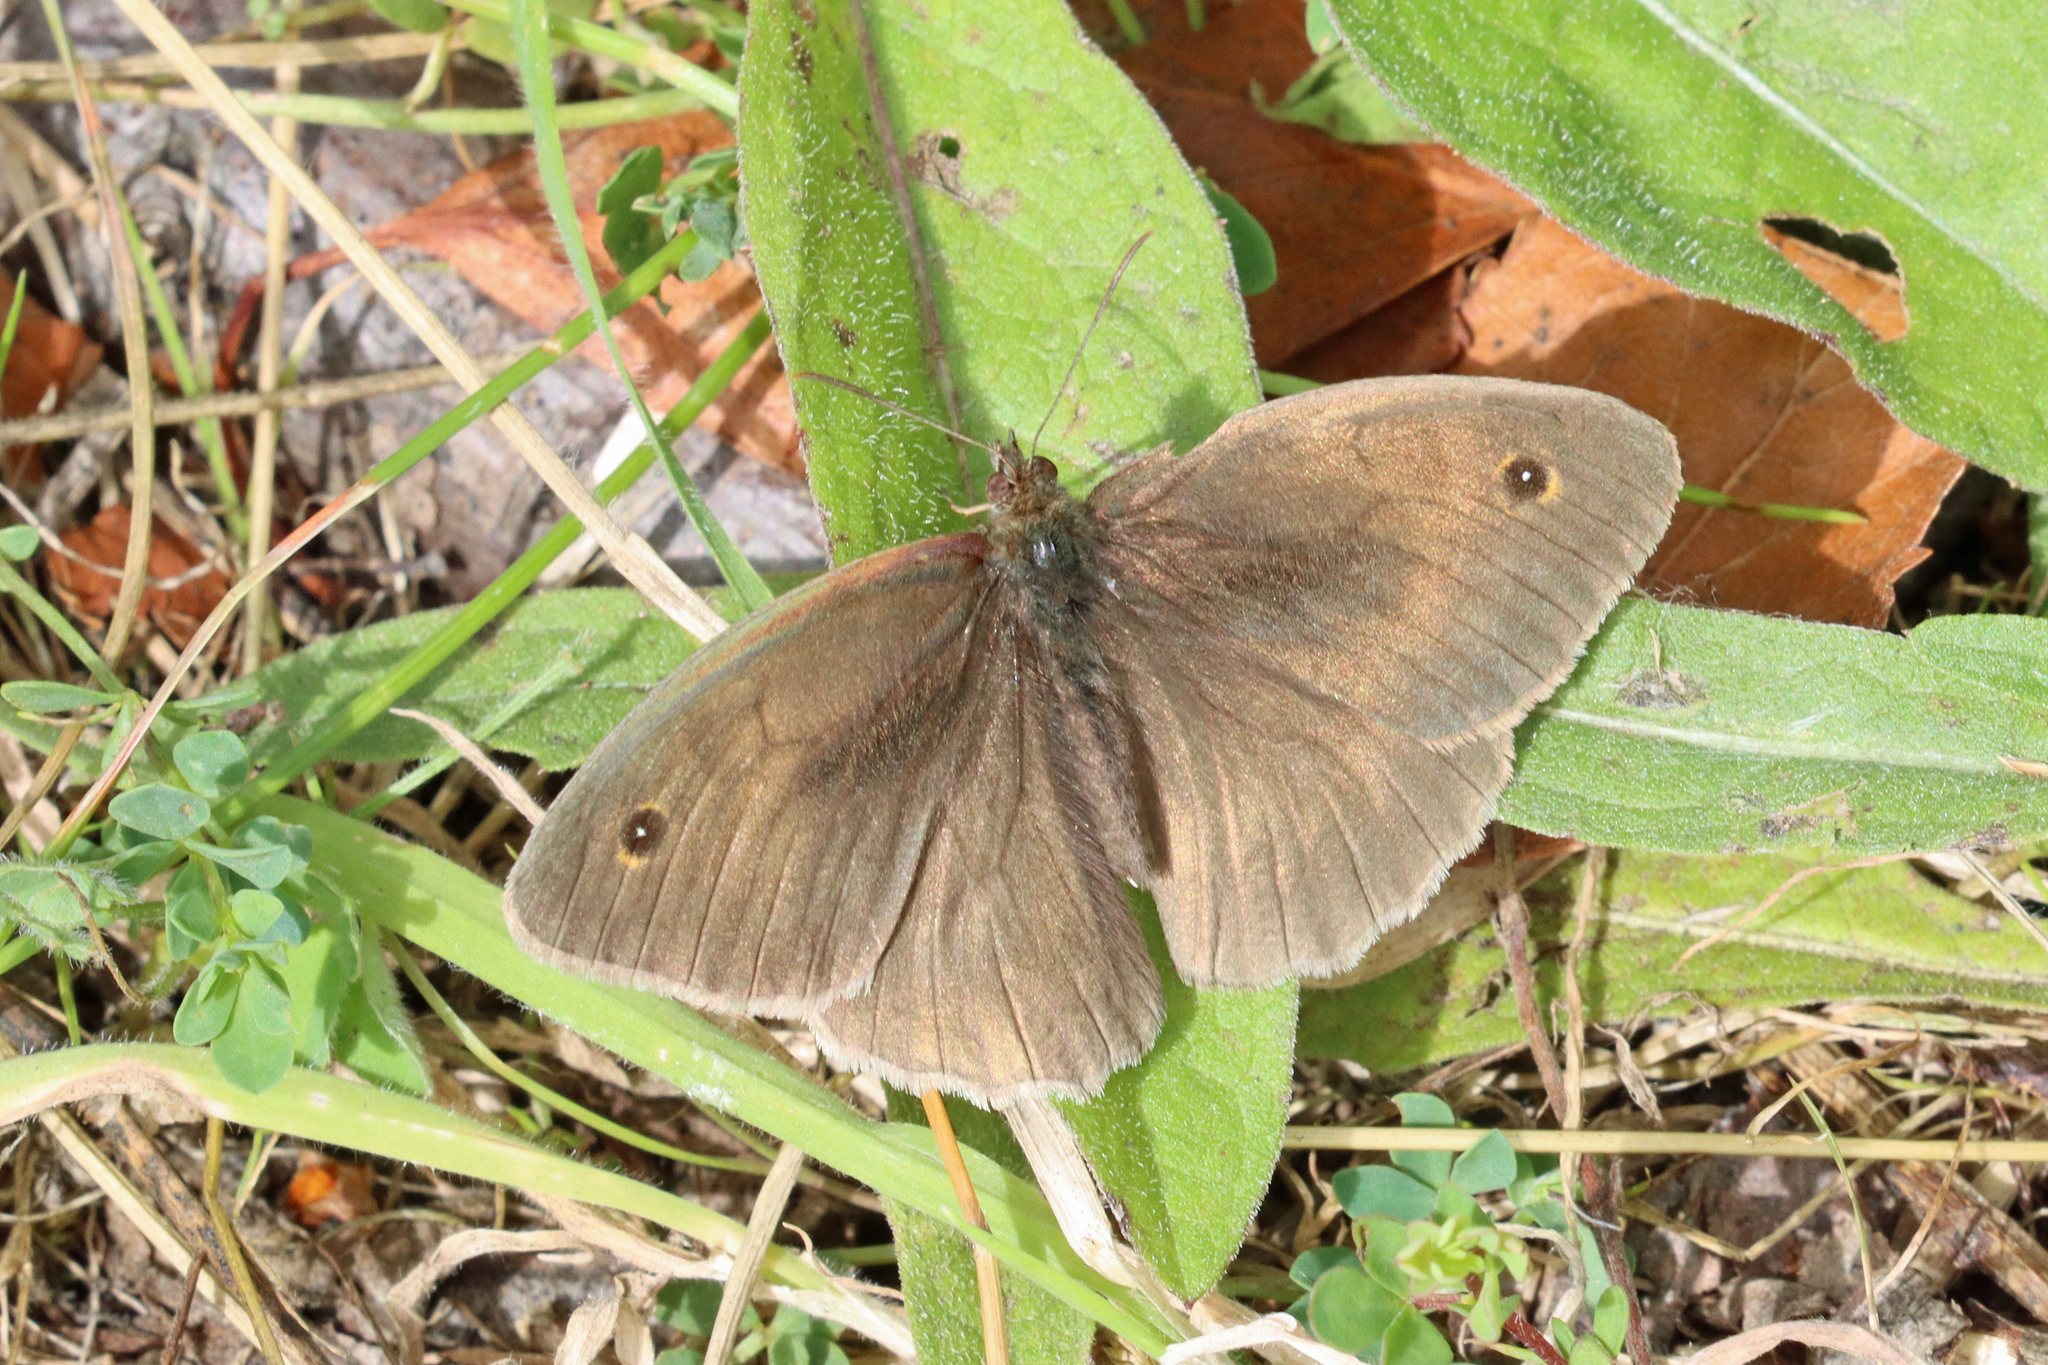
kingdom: Animalia
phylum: Arthropoda
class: Insecta
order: Lepidoptera
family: Nymphalidae
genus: Maniola
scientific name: Maniola jurtina
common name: Meadow brown
